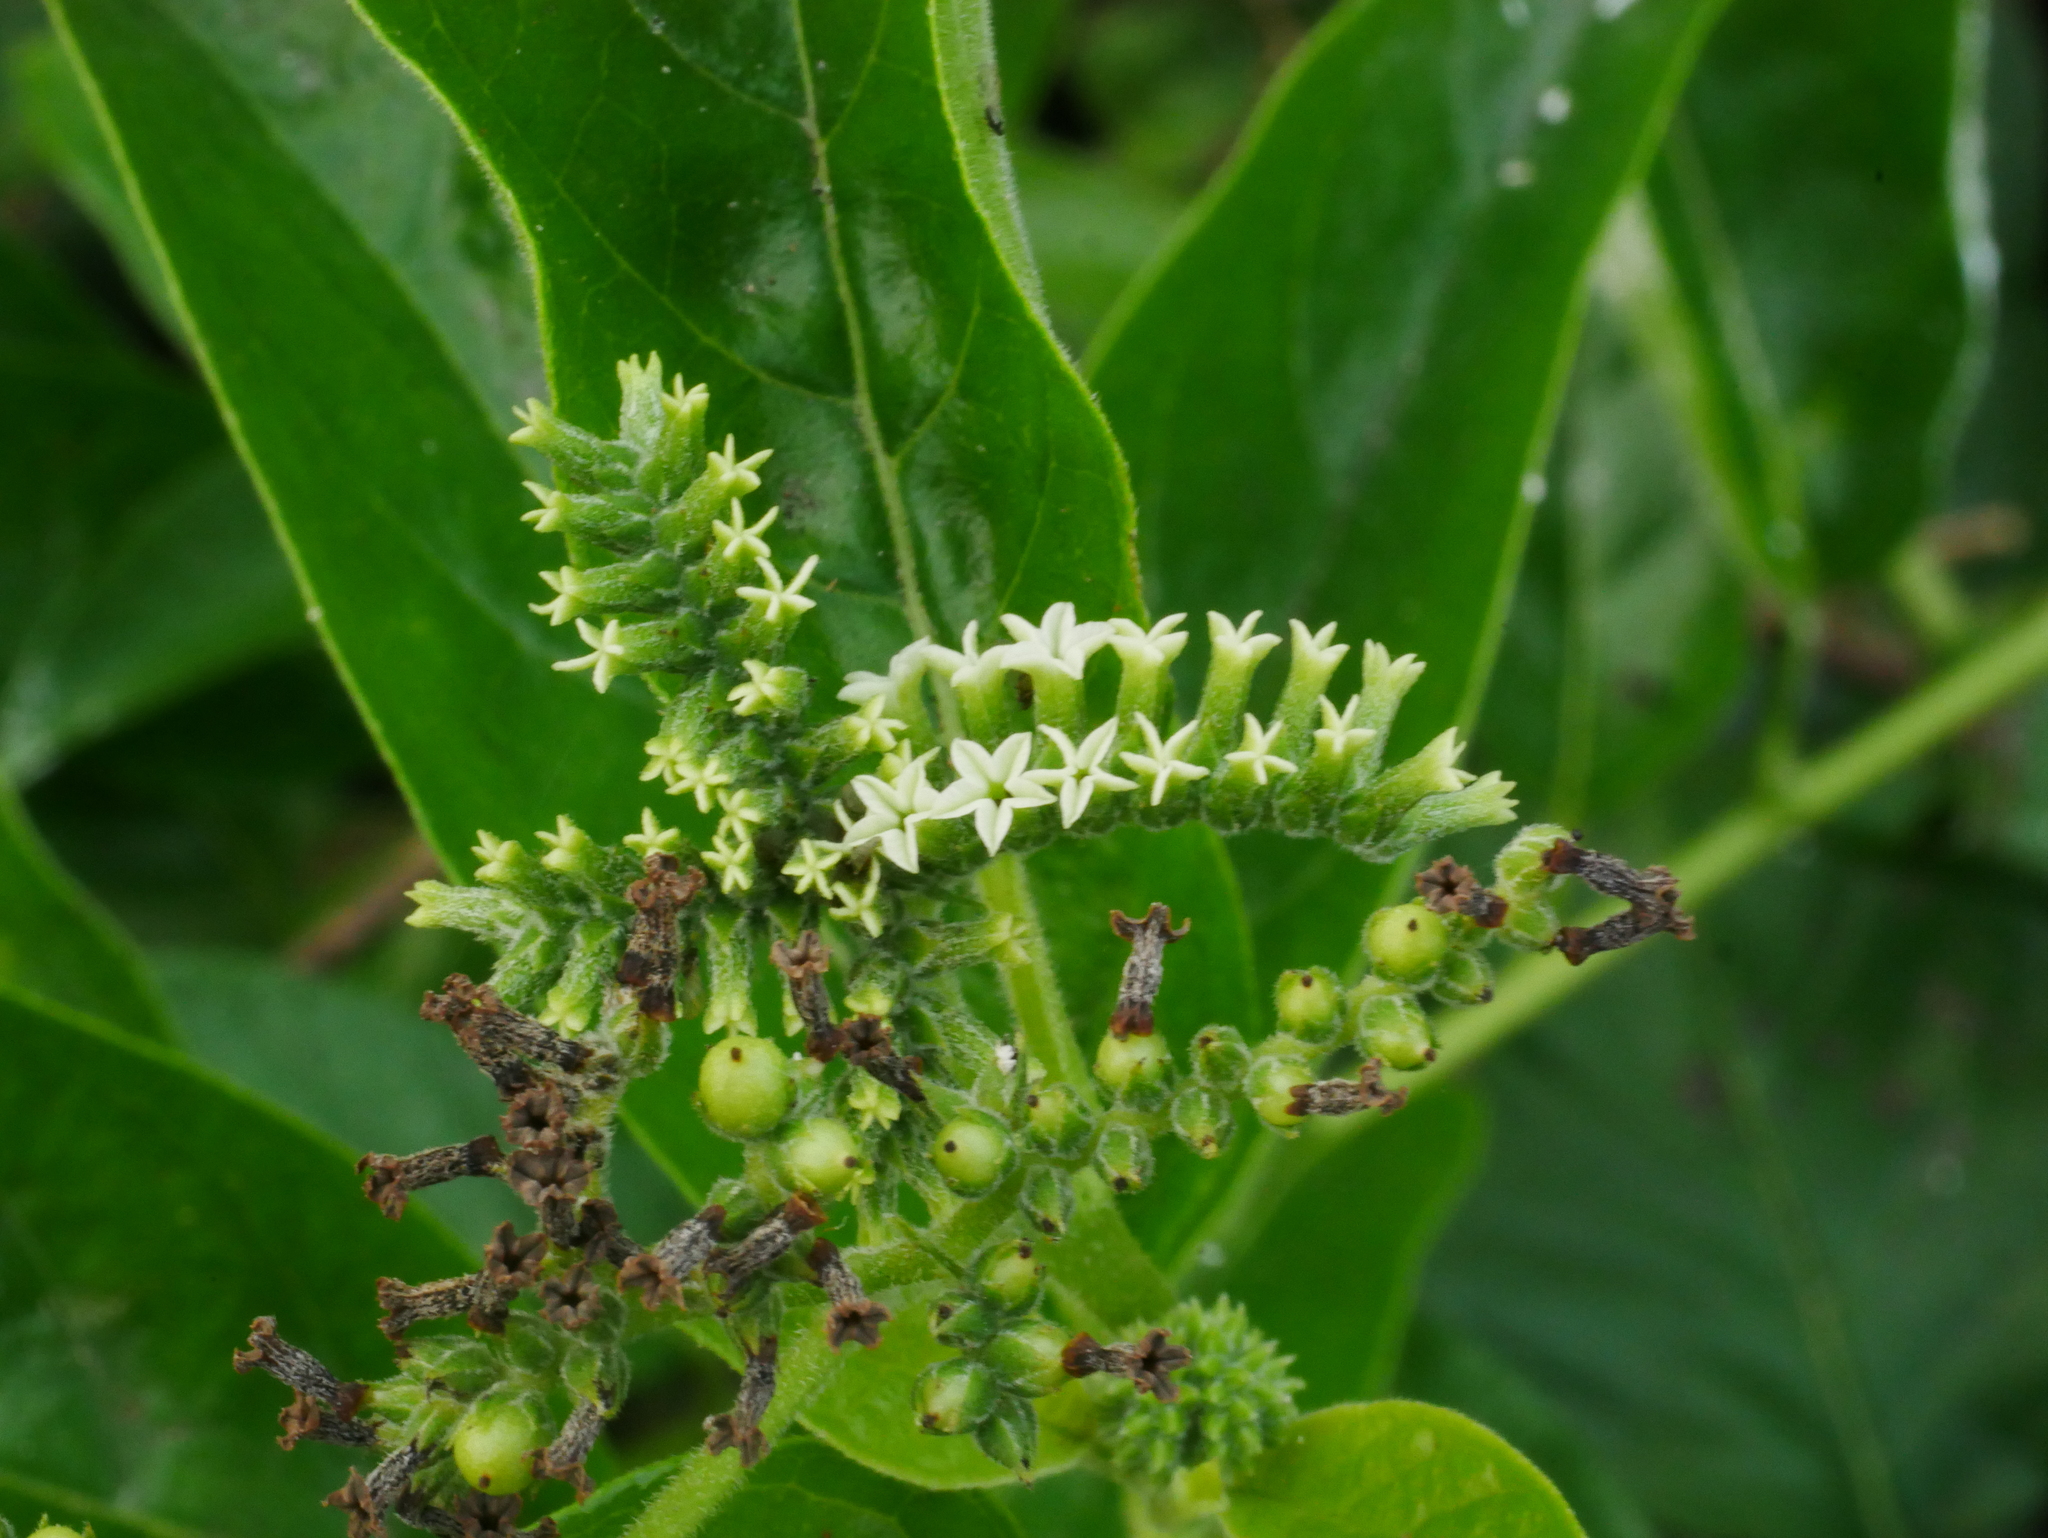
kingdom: Plantae
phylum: Tracheophyta
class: Magnoliopsida
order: Boraginales
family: Heliotropiaceae
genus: Heliotropium
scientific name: Heliotropium sarmentosum
